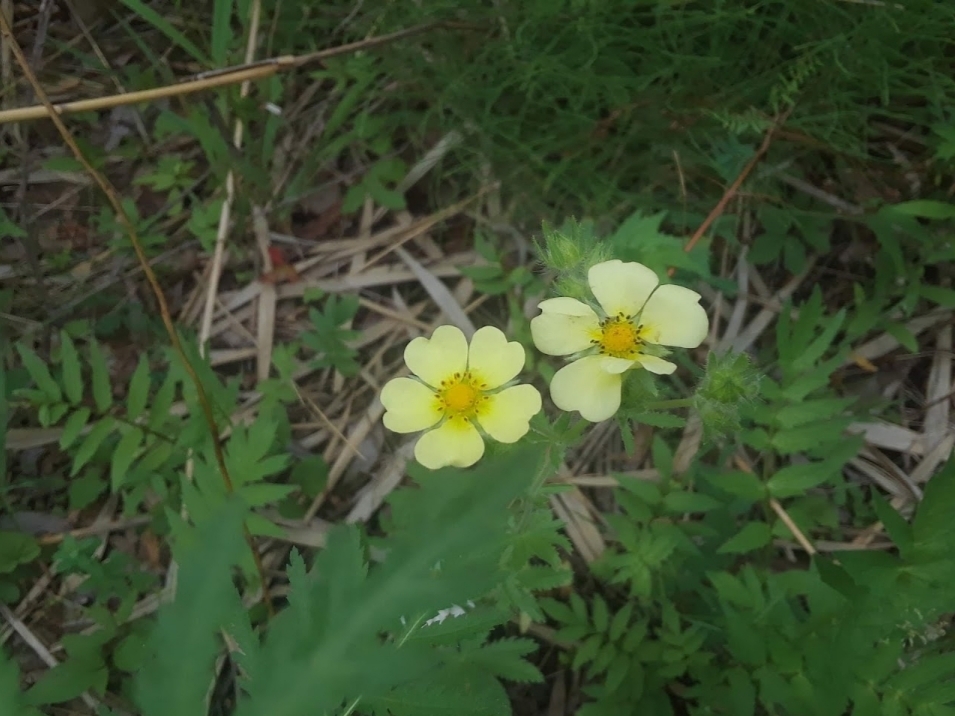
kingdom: Plantae
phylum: Tracheophyta
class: Magnoliopsida
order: Rosales
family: Rosaceae
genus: Potentilla
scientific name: Potentilla recta
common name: Sulphur cinquefoil
